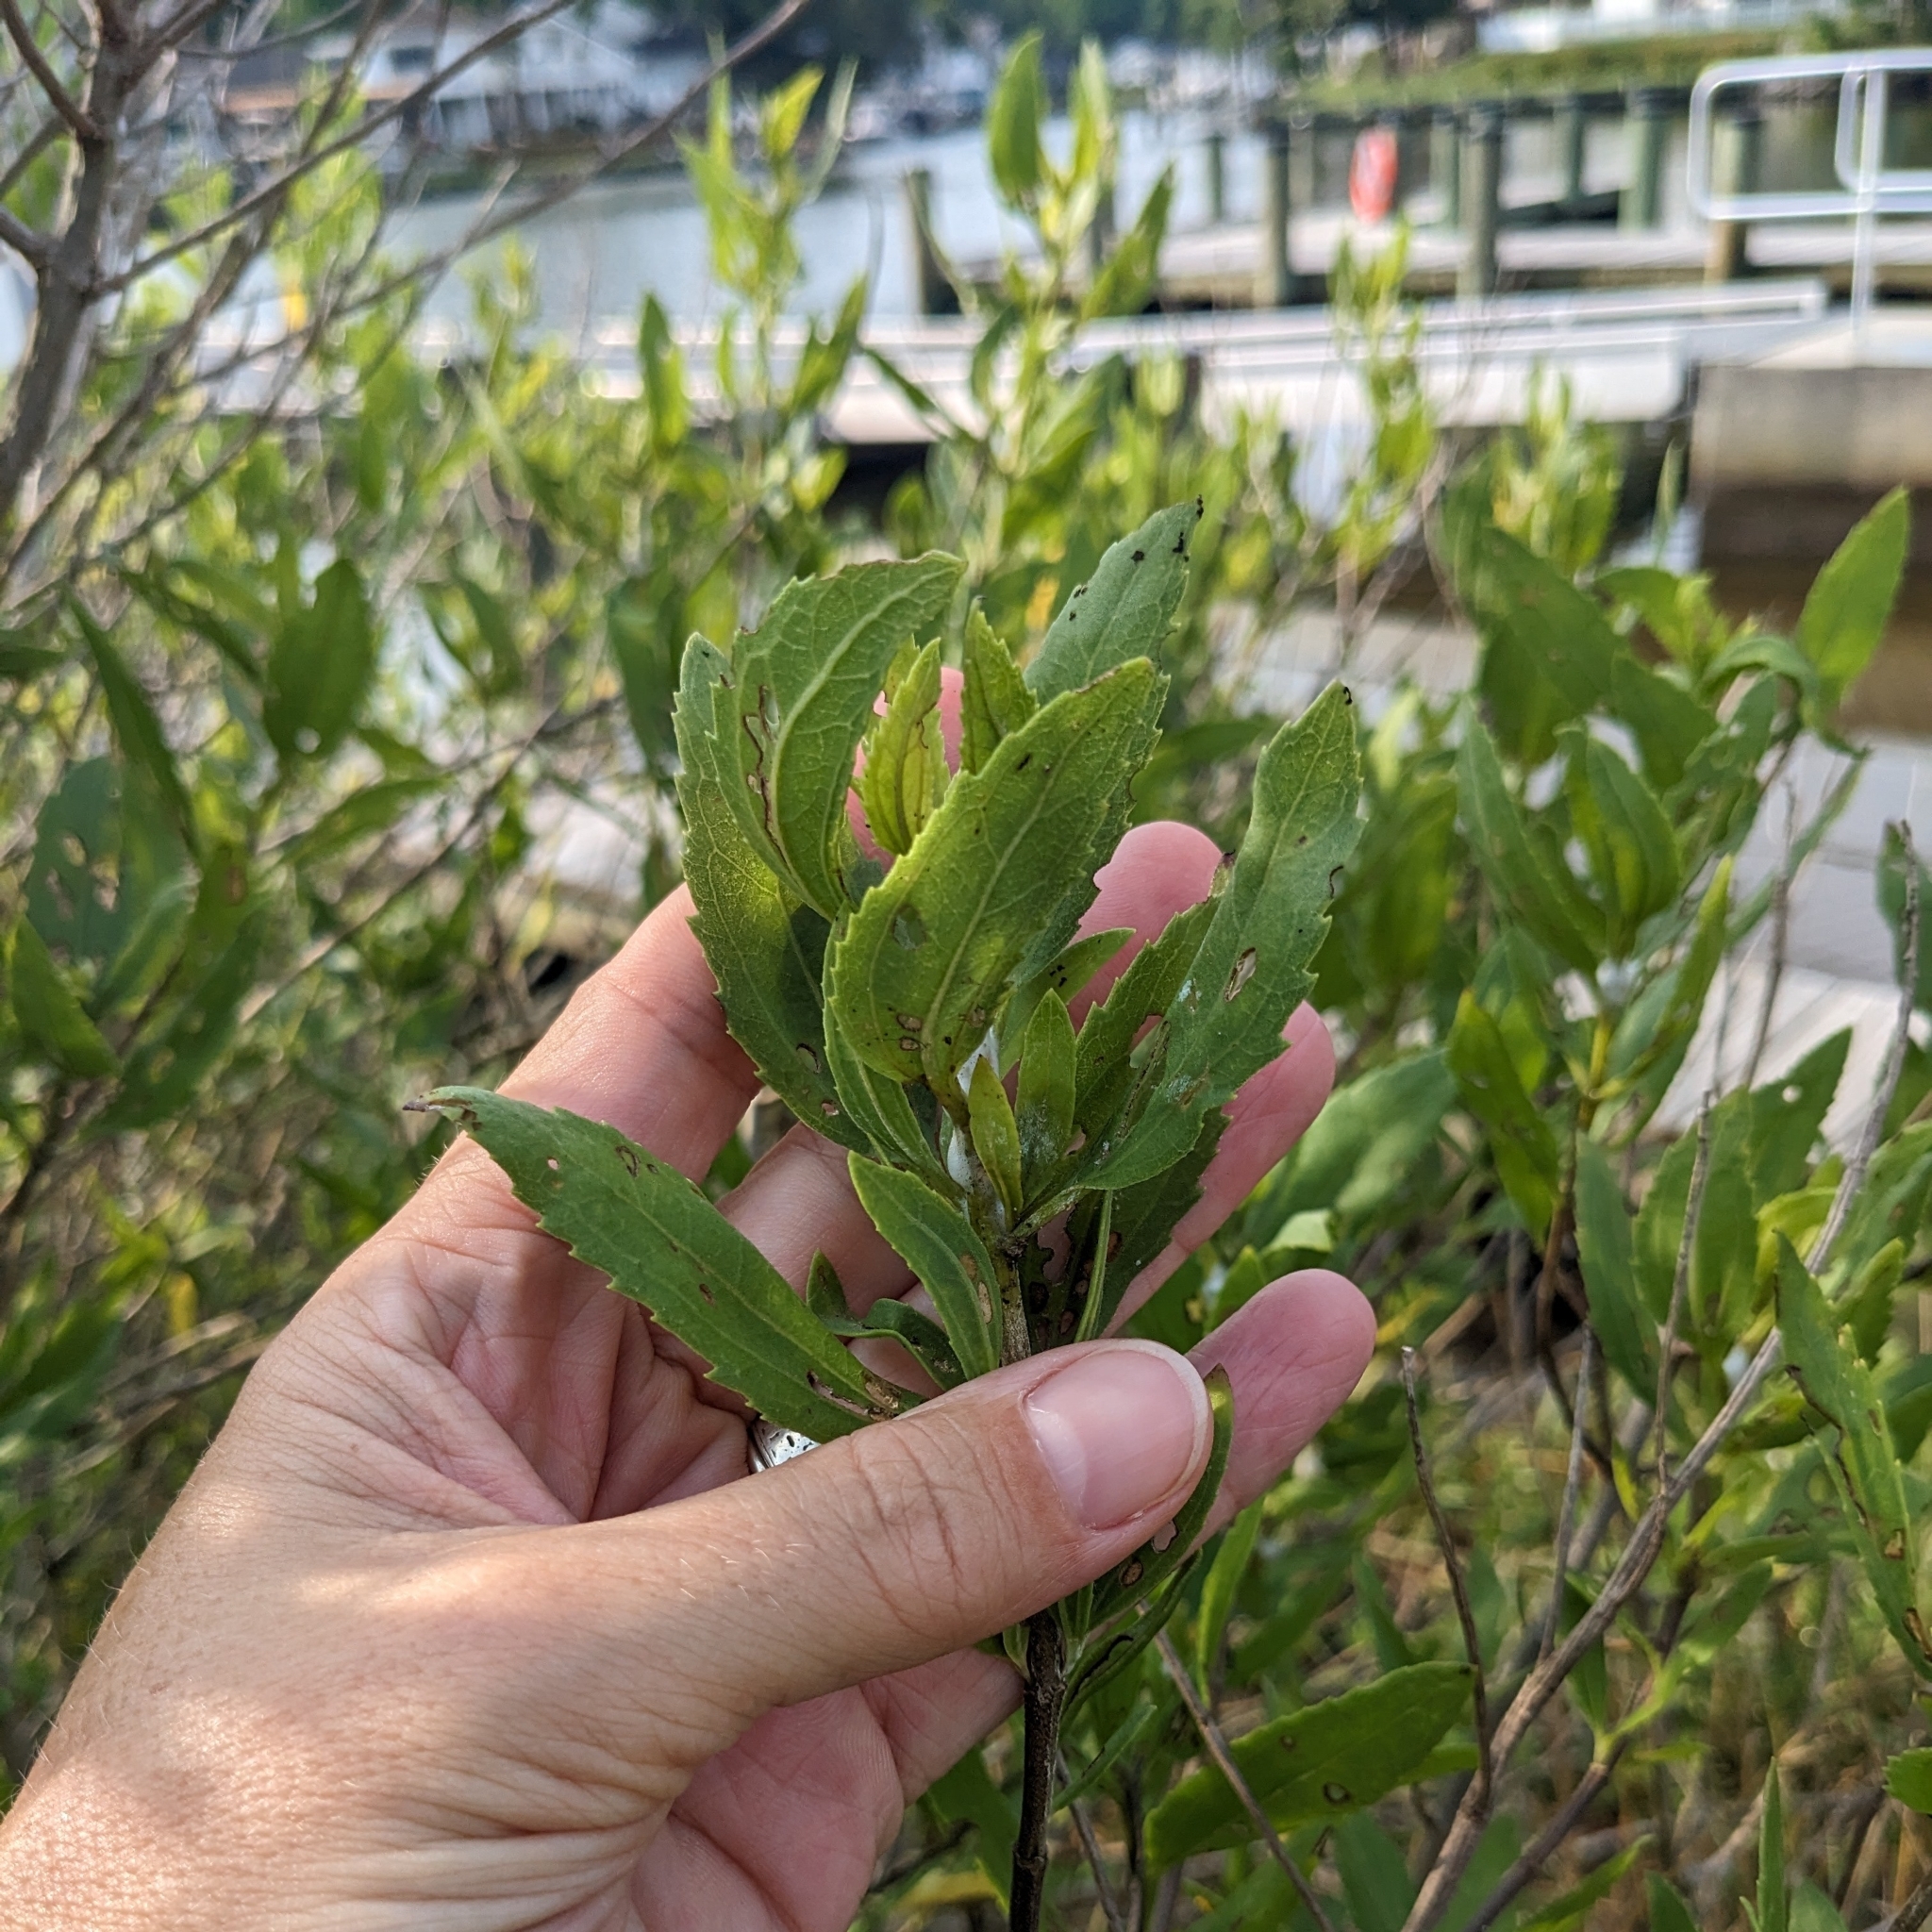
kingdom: Plantae
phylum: Tracheophyta
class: Magnoliopsida
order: Asterales
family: Asteraceae
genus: Iva
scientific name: Iva frutescens
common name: Big-leaved marsh-elder
